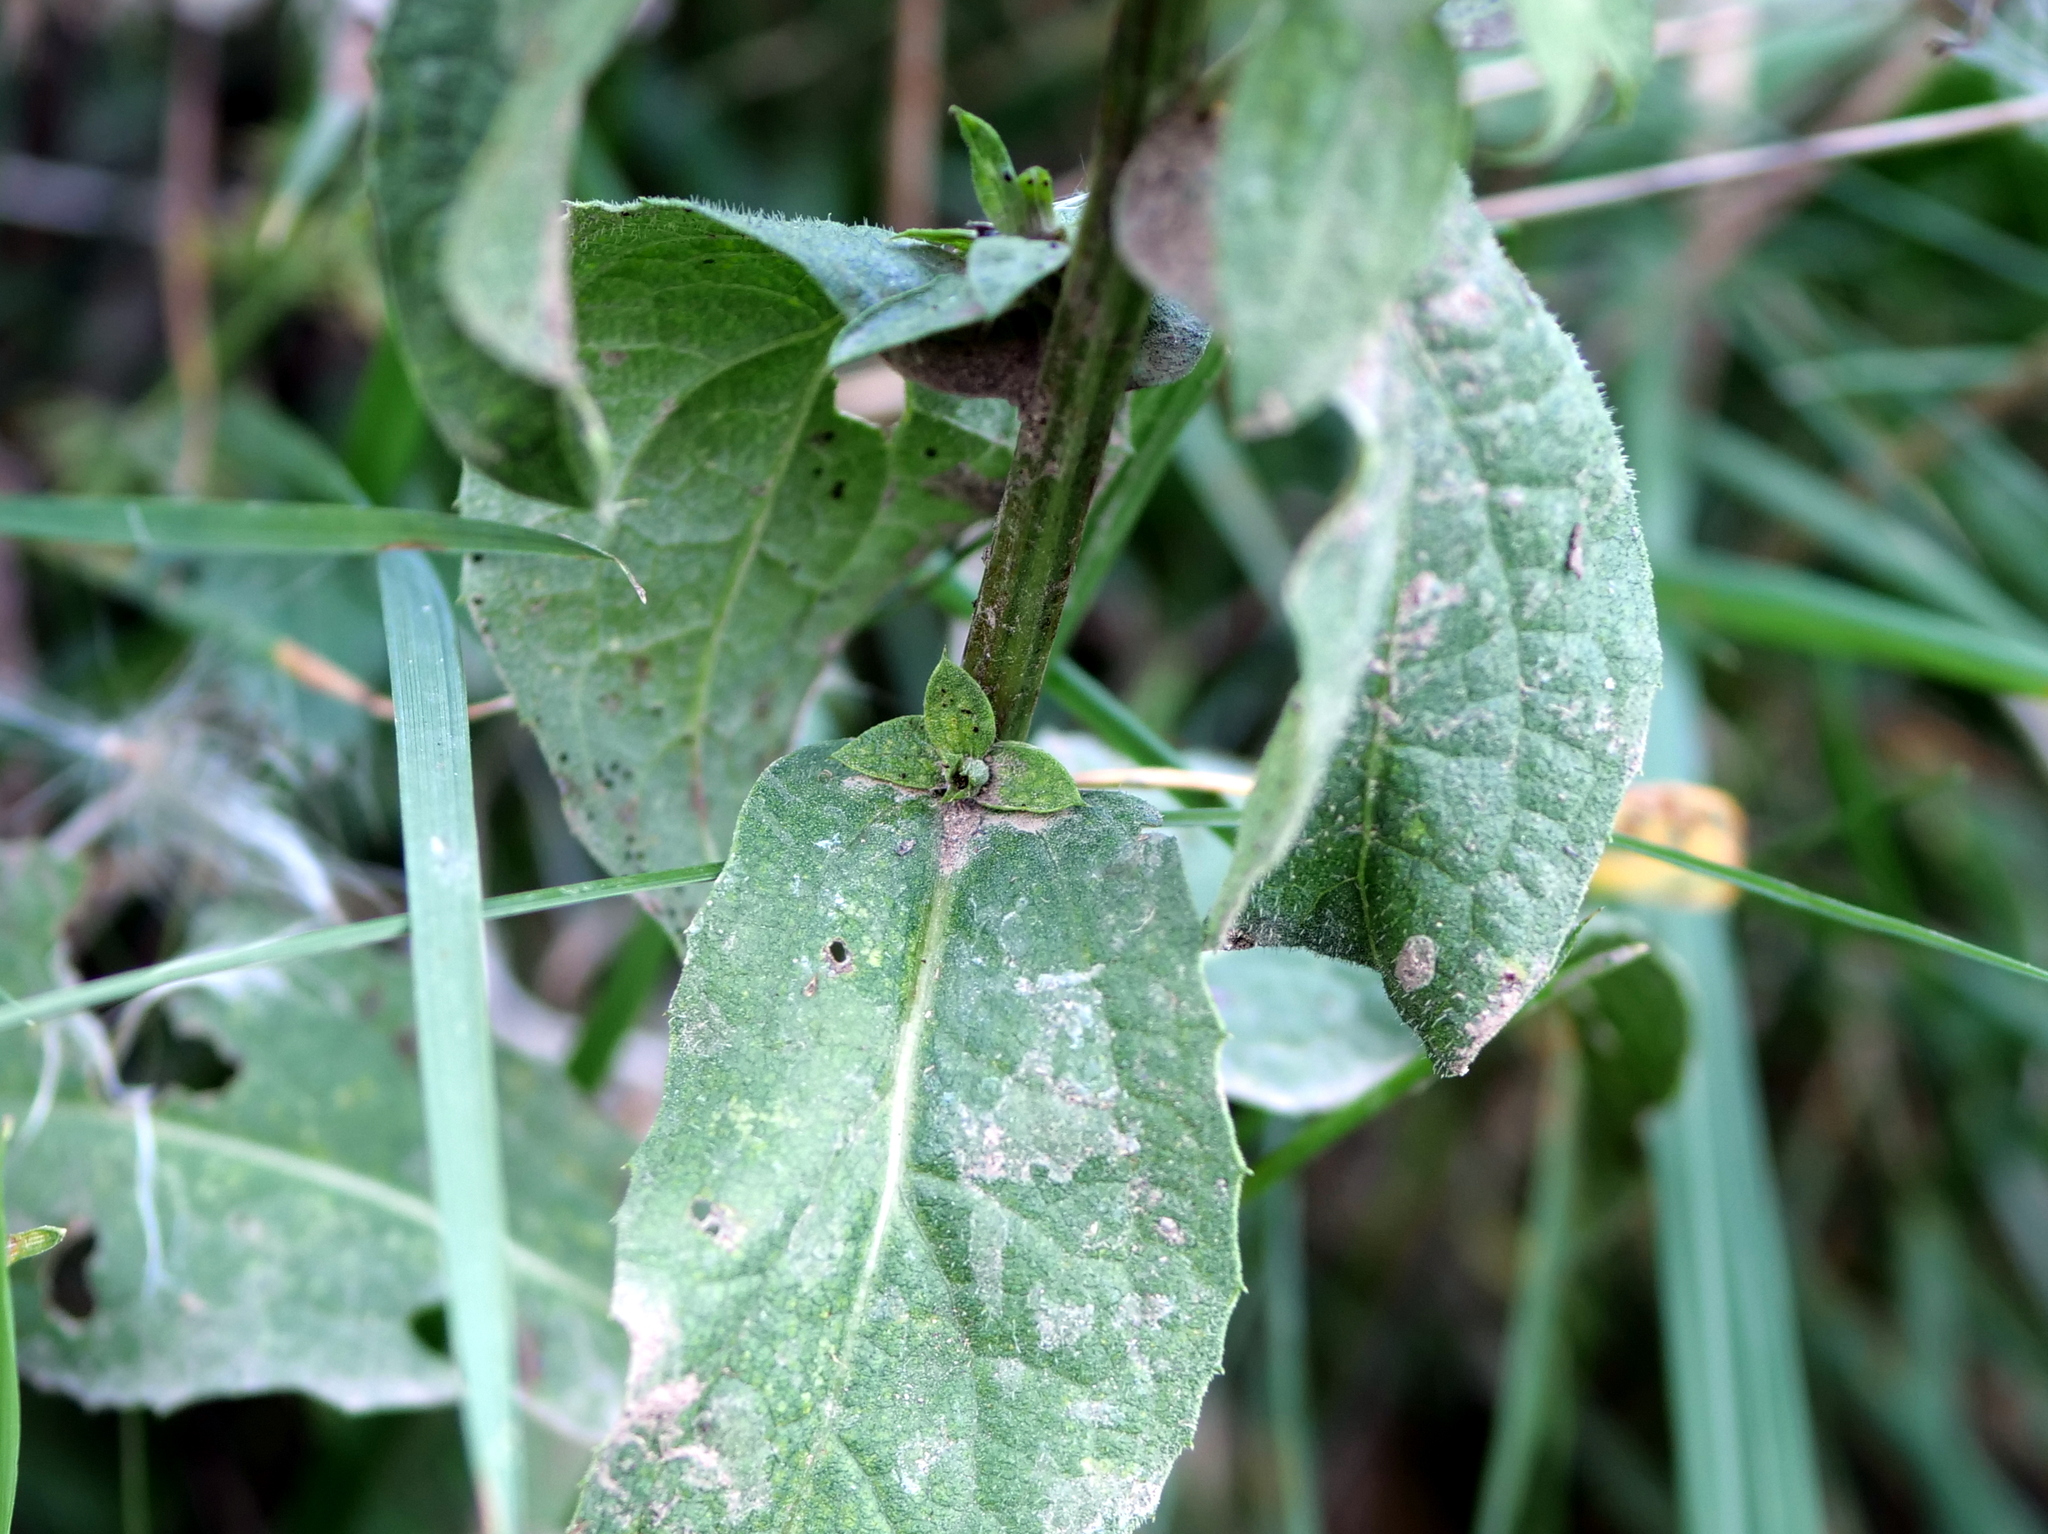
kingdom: Plantae
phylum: Tracheophyta
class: Magnoliopsida
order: Asterales
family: Asteraceae
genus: Centaurea
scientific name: Centaurea pseudophrygia
